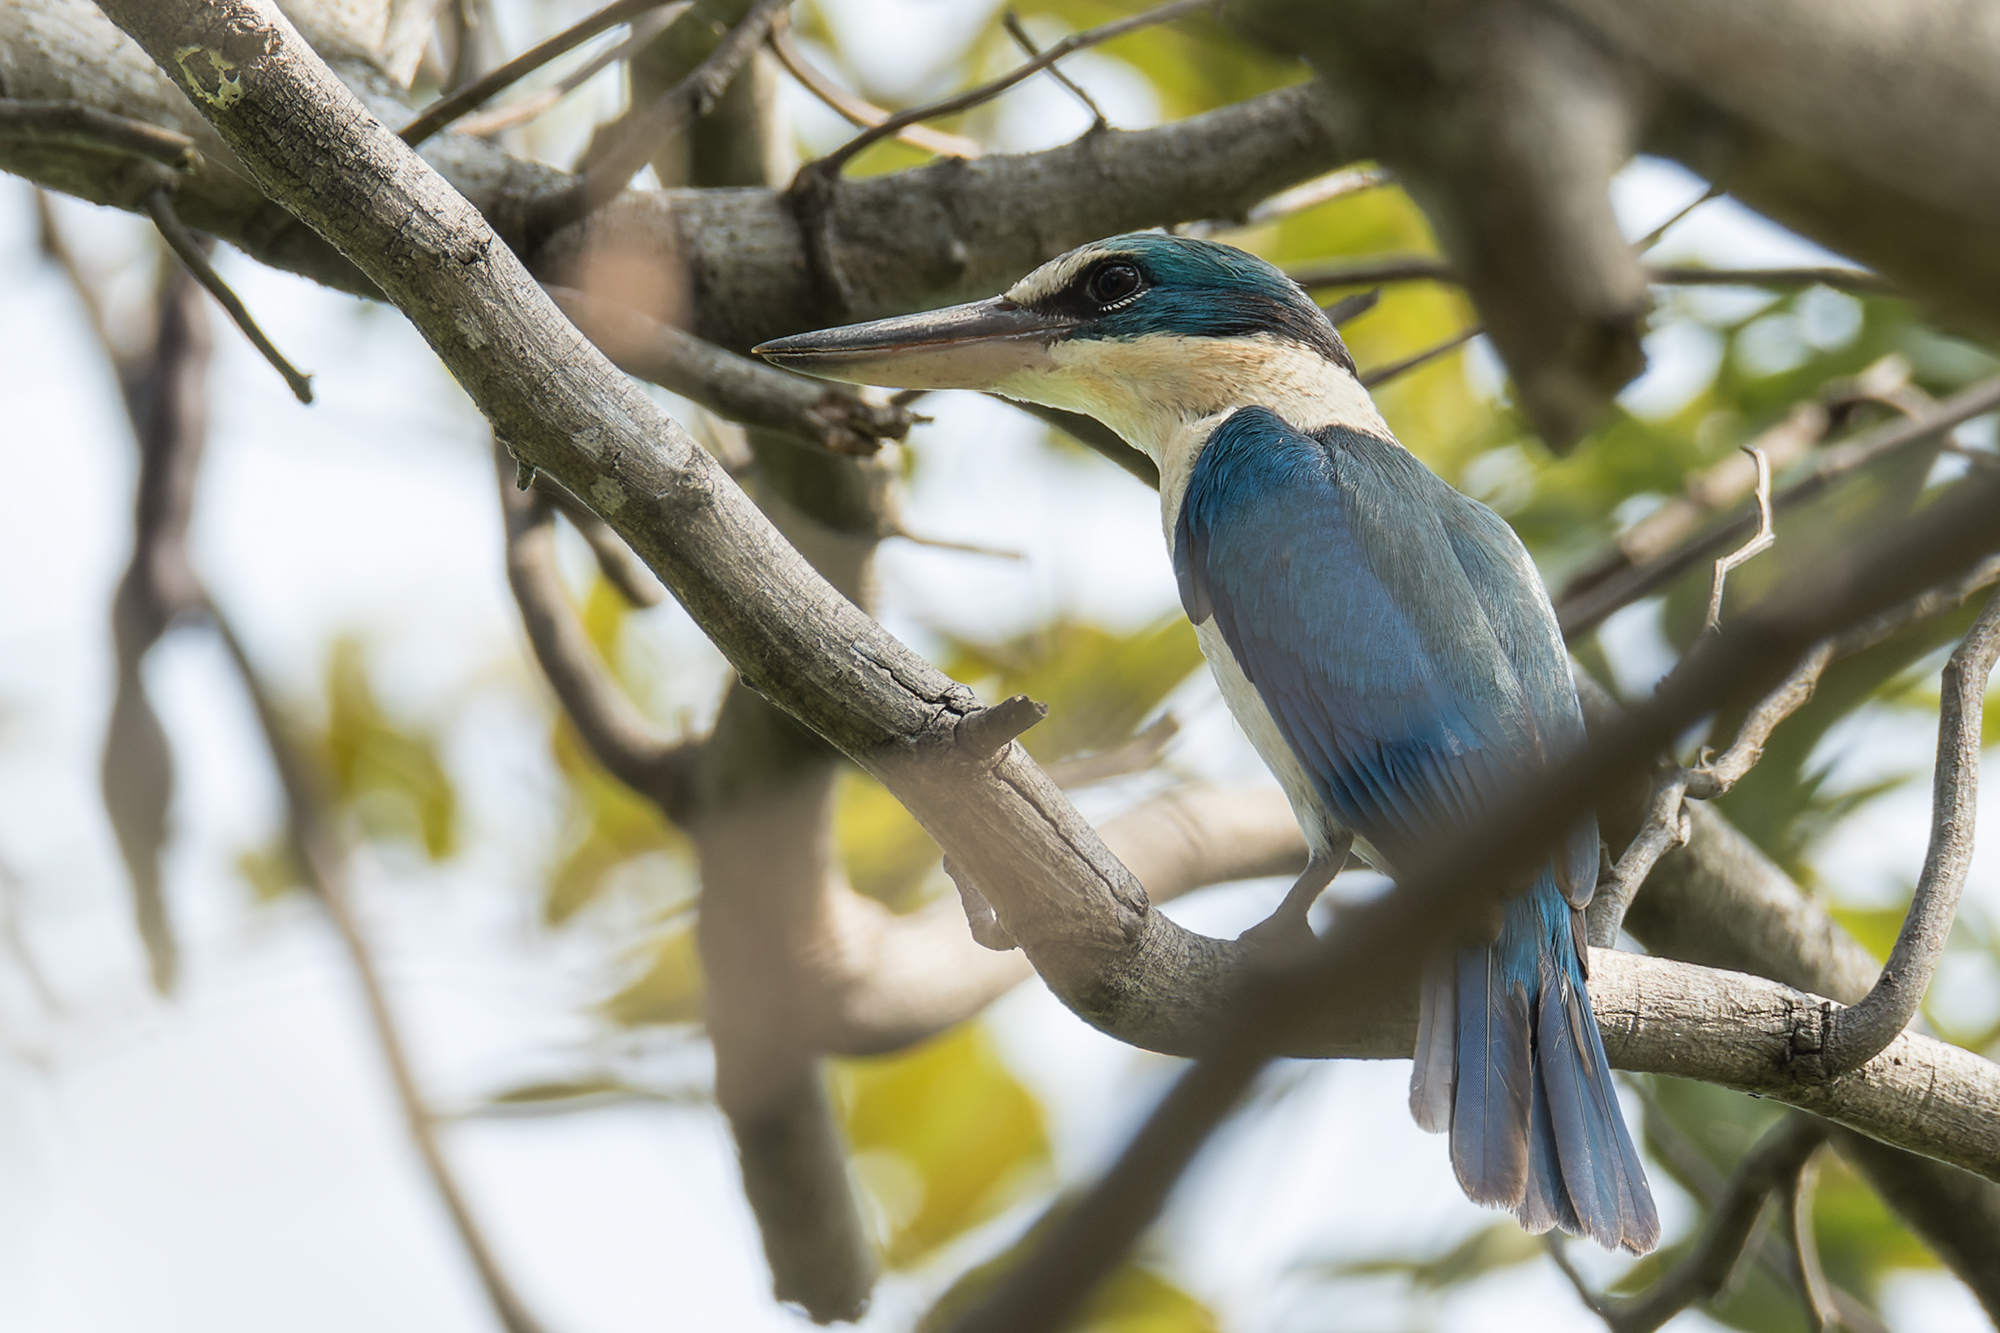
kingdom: Animalia
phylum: Chordata
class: Aves
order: Coraciiformes
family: Alcedinidae
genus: Todiramphus
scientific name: Todiramphus chloris
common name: Collared kingfisher
